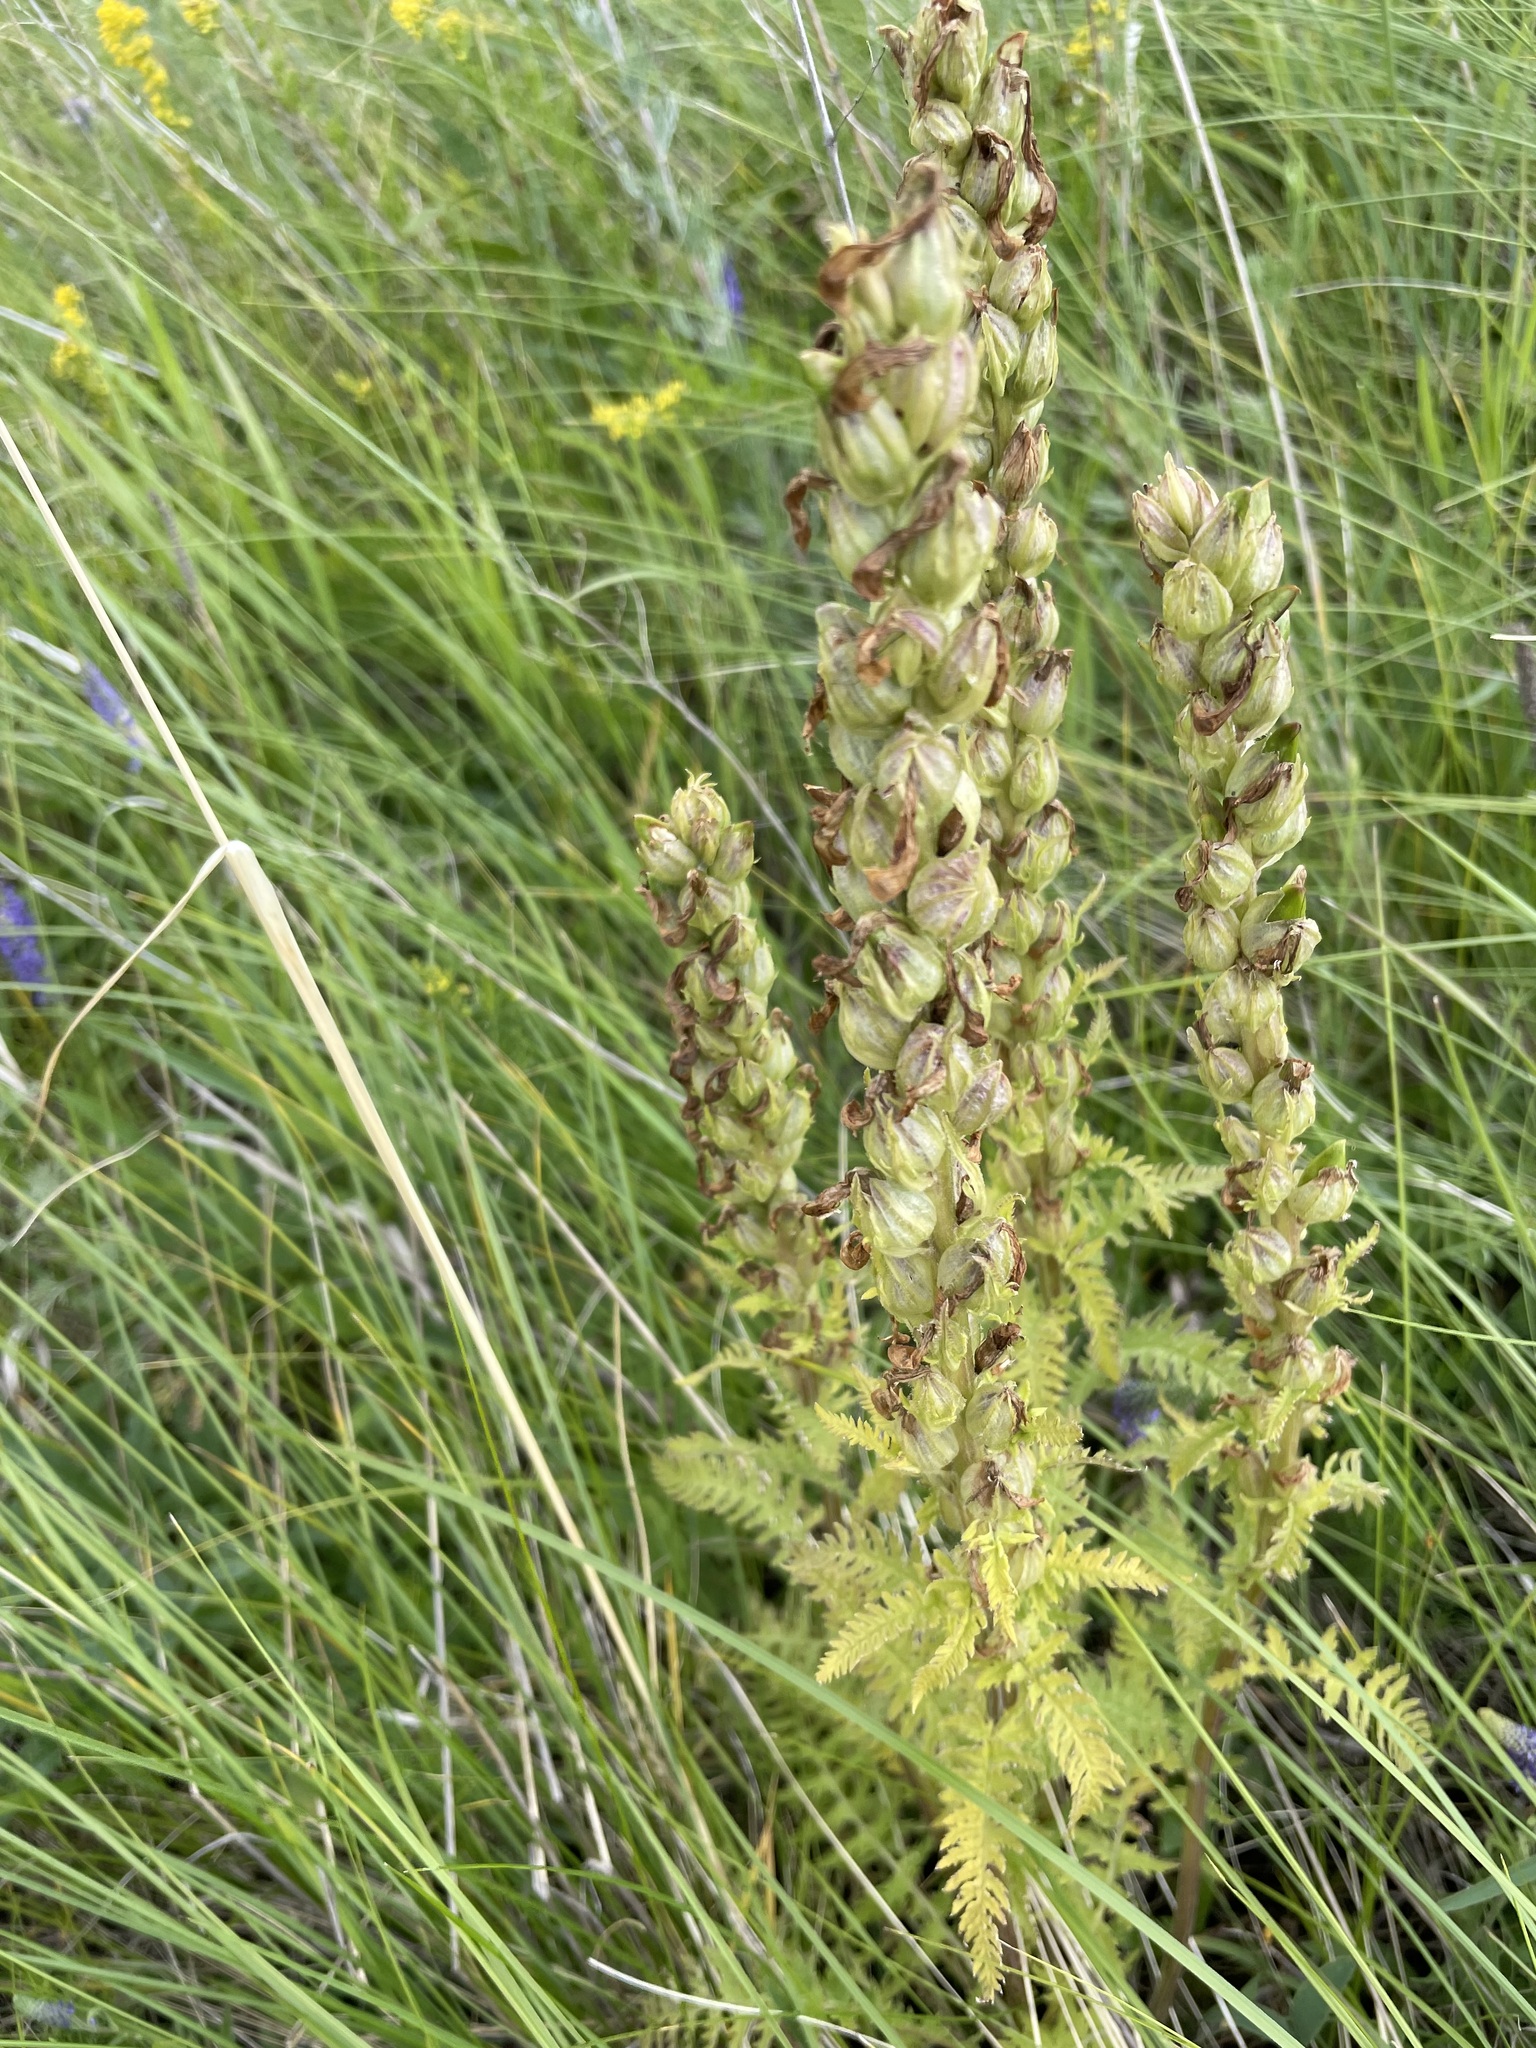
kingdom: Plantae
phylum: Tracheophyta
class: Magnoliopsida
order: Lamiales
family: Orobanchaceae
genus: Pedicularis
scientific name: Pedicularis kaufmannii
